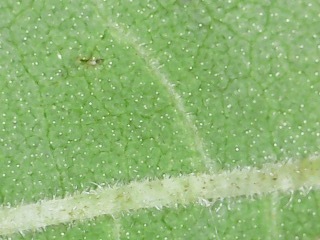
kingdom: Plantae
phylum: Tracheophyta
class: Magnoliopsida
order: Asterales
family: Asteraceae
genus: Helianthus
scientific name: Helianthus resinosus
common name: Resin-dot sunflower
